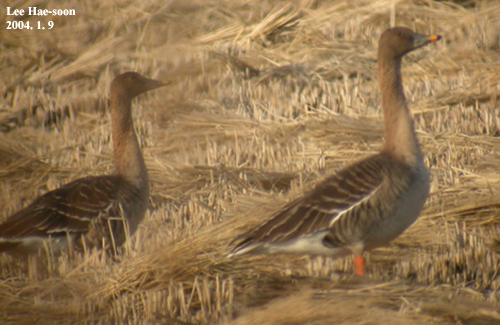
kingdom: Animalia
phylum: Chordata
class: Aves
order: Anseriformes
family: Anatidae
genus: Anser
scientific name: Anser serrirostris
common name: Tundra bean goose
